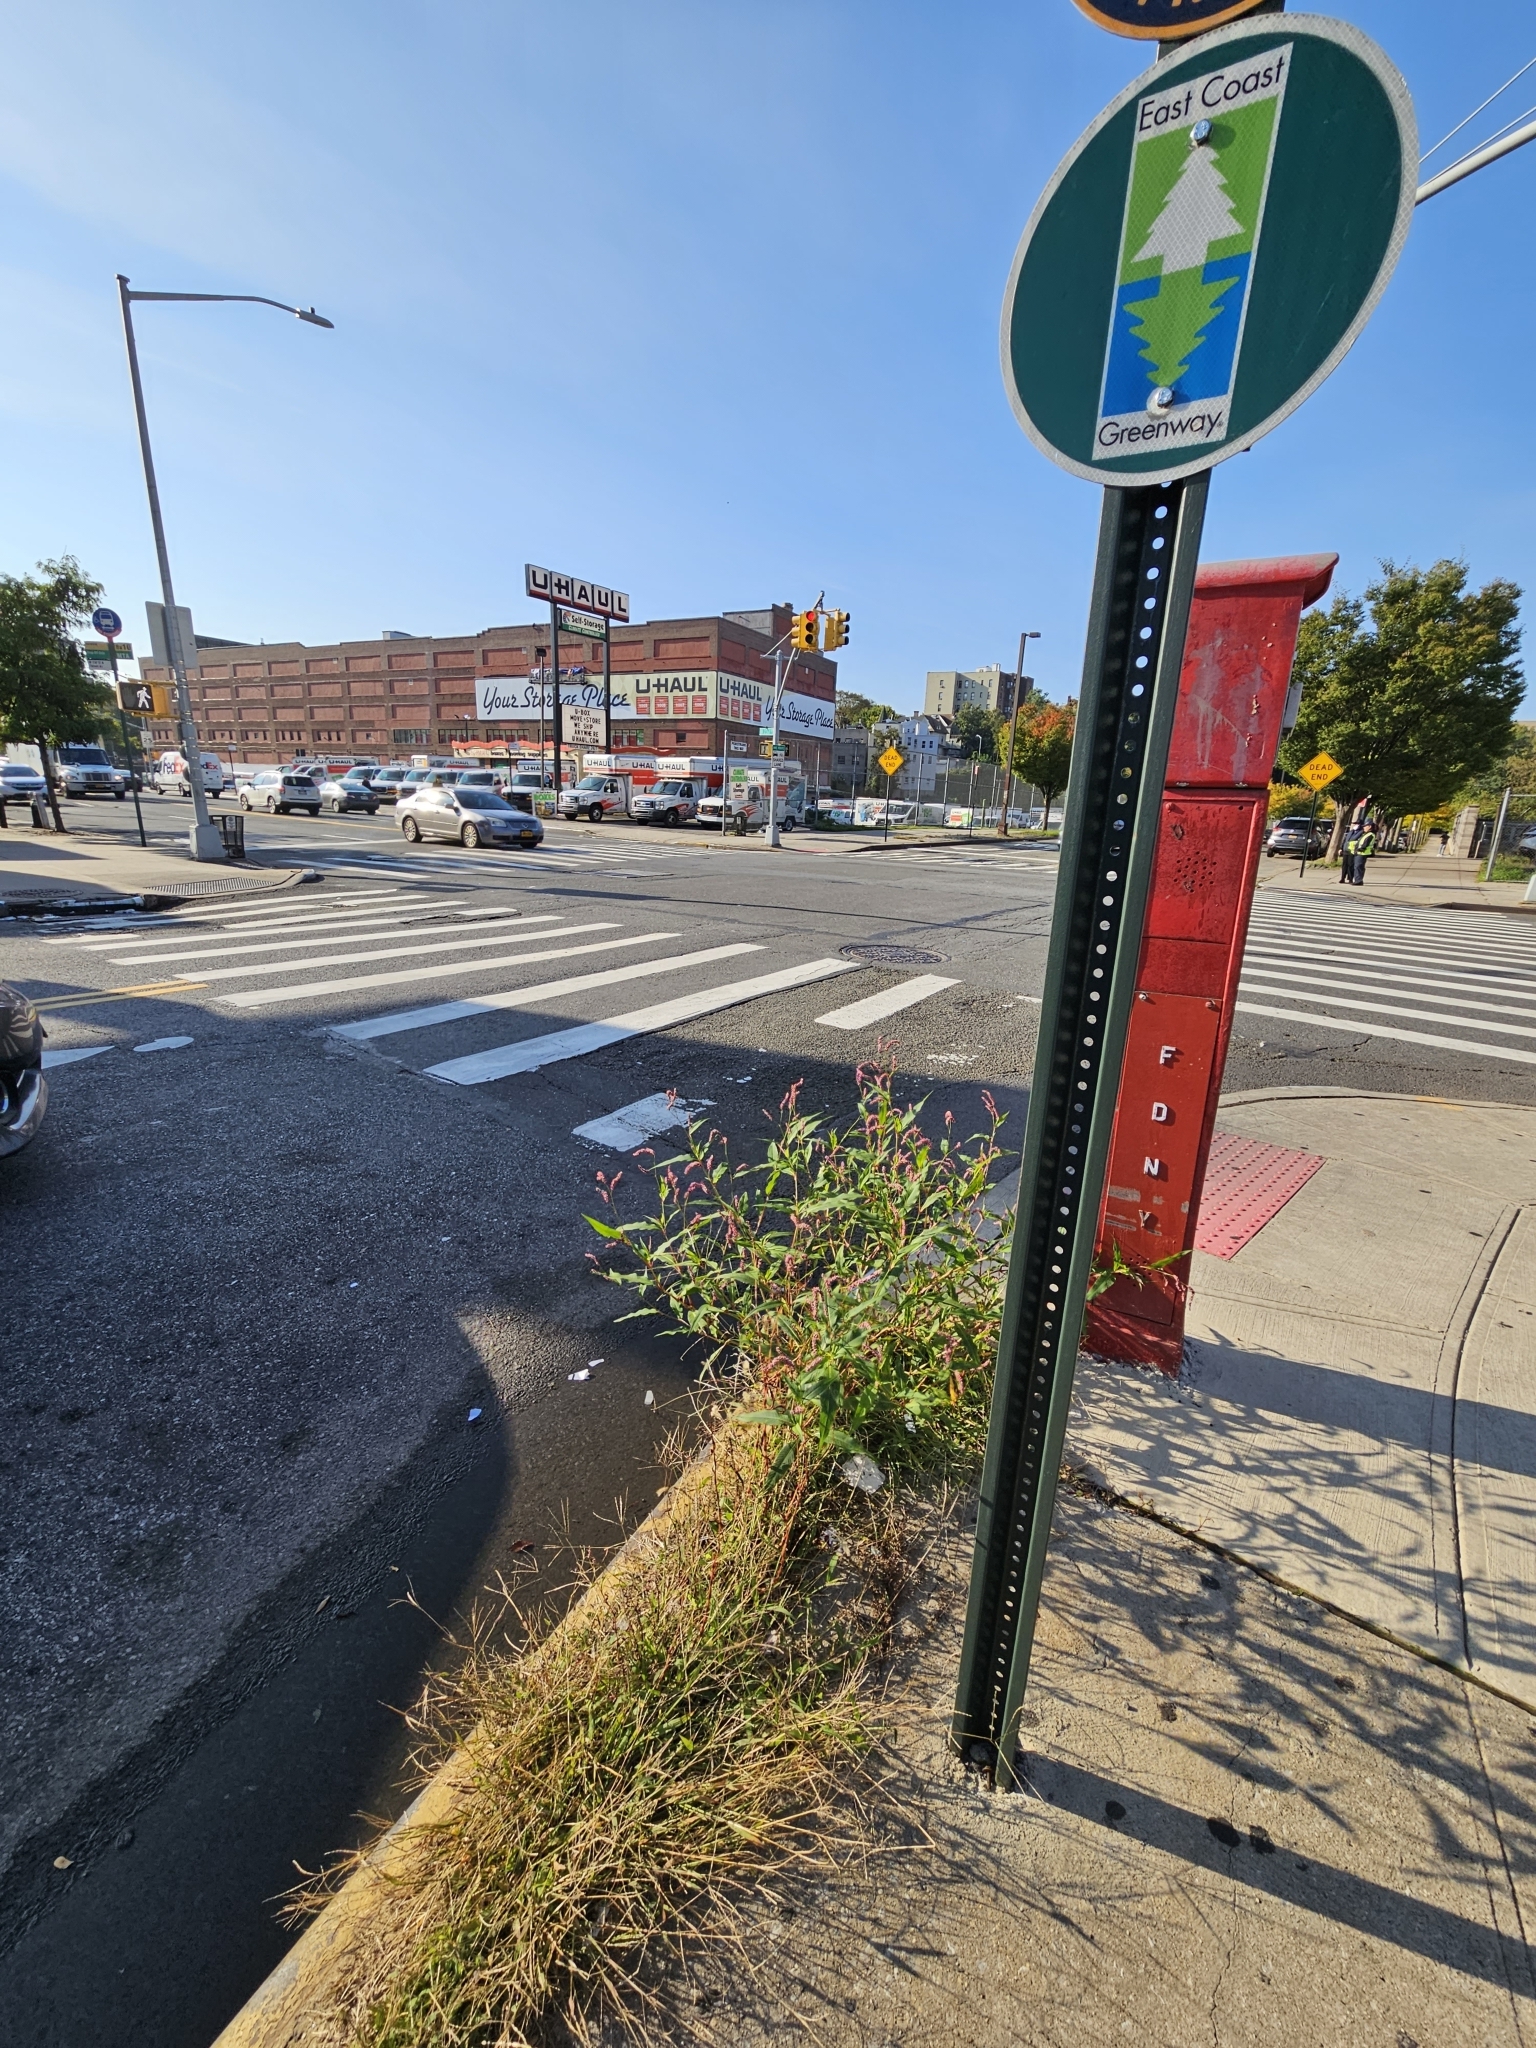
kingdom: Plantae
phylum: Tracheophyta
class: Magnoliopsida
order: Caryophyllales
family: Polygonaceae
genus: Persicaria
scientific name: Persicaria extremiorientalis
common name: Far-eastern smartweed
